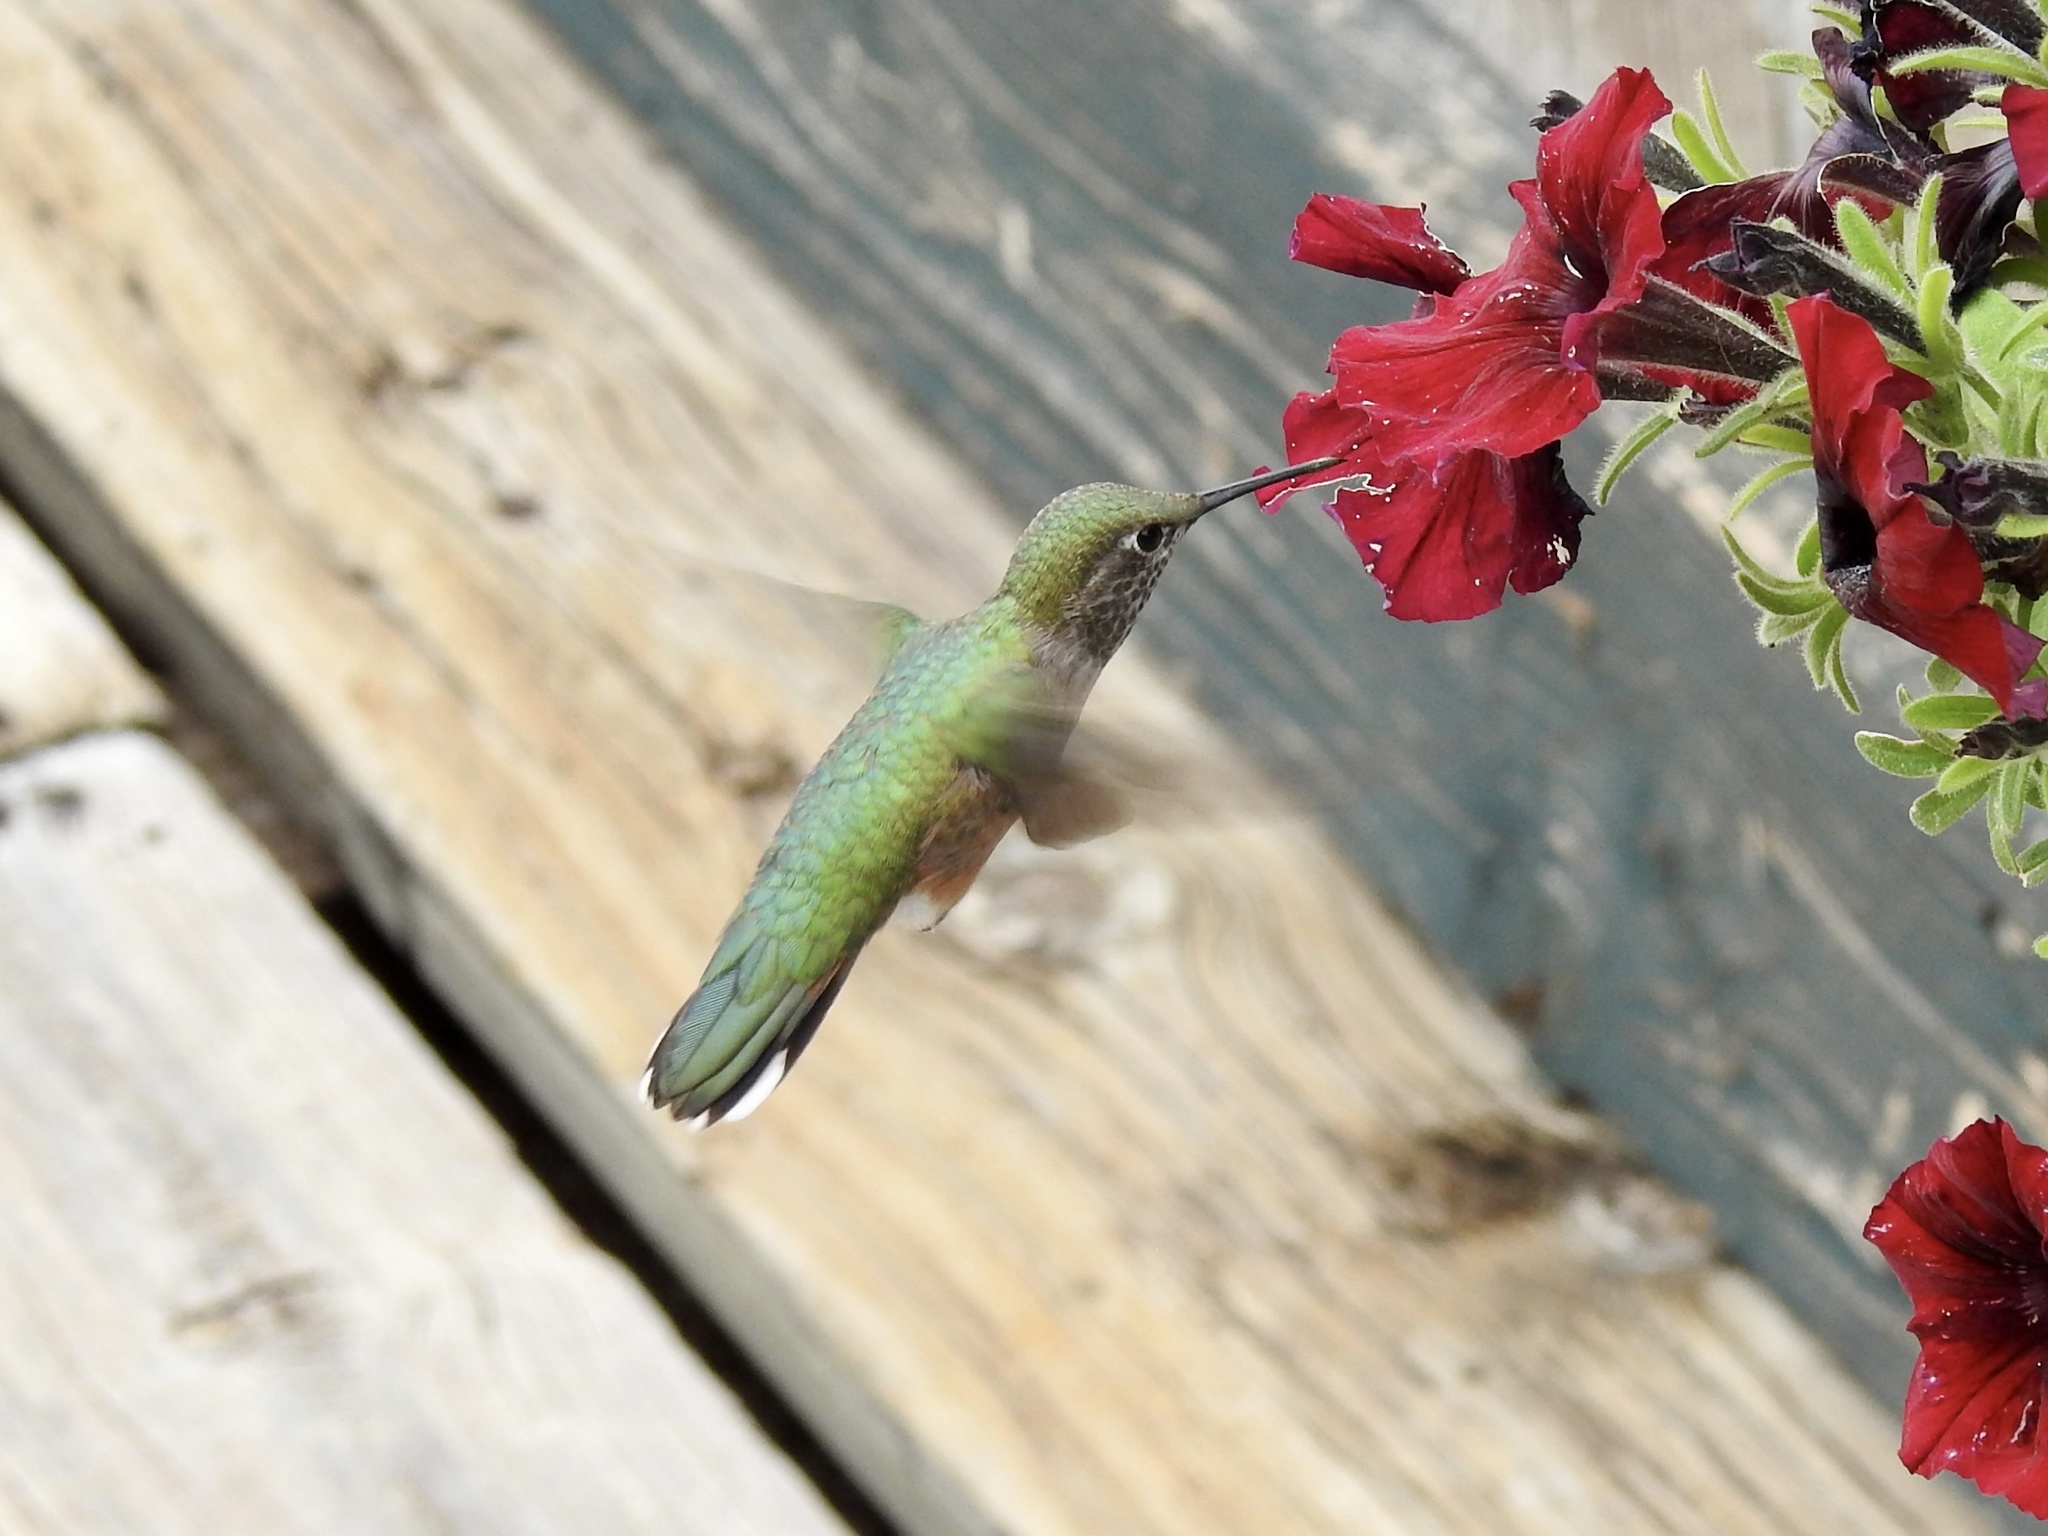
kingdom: Animalia
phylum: Chordata
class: Aves
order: Apodiformes
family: Trochilidae
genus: Selasphorus
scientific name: Selasphorus platycercus
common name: Broad-tailed hummingbird
